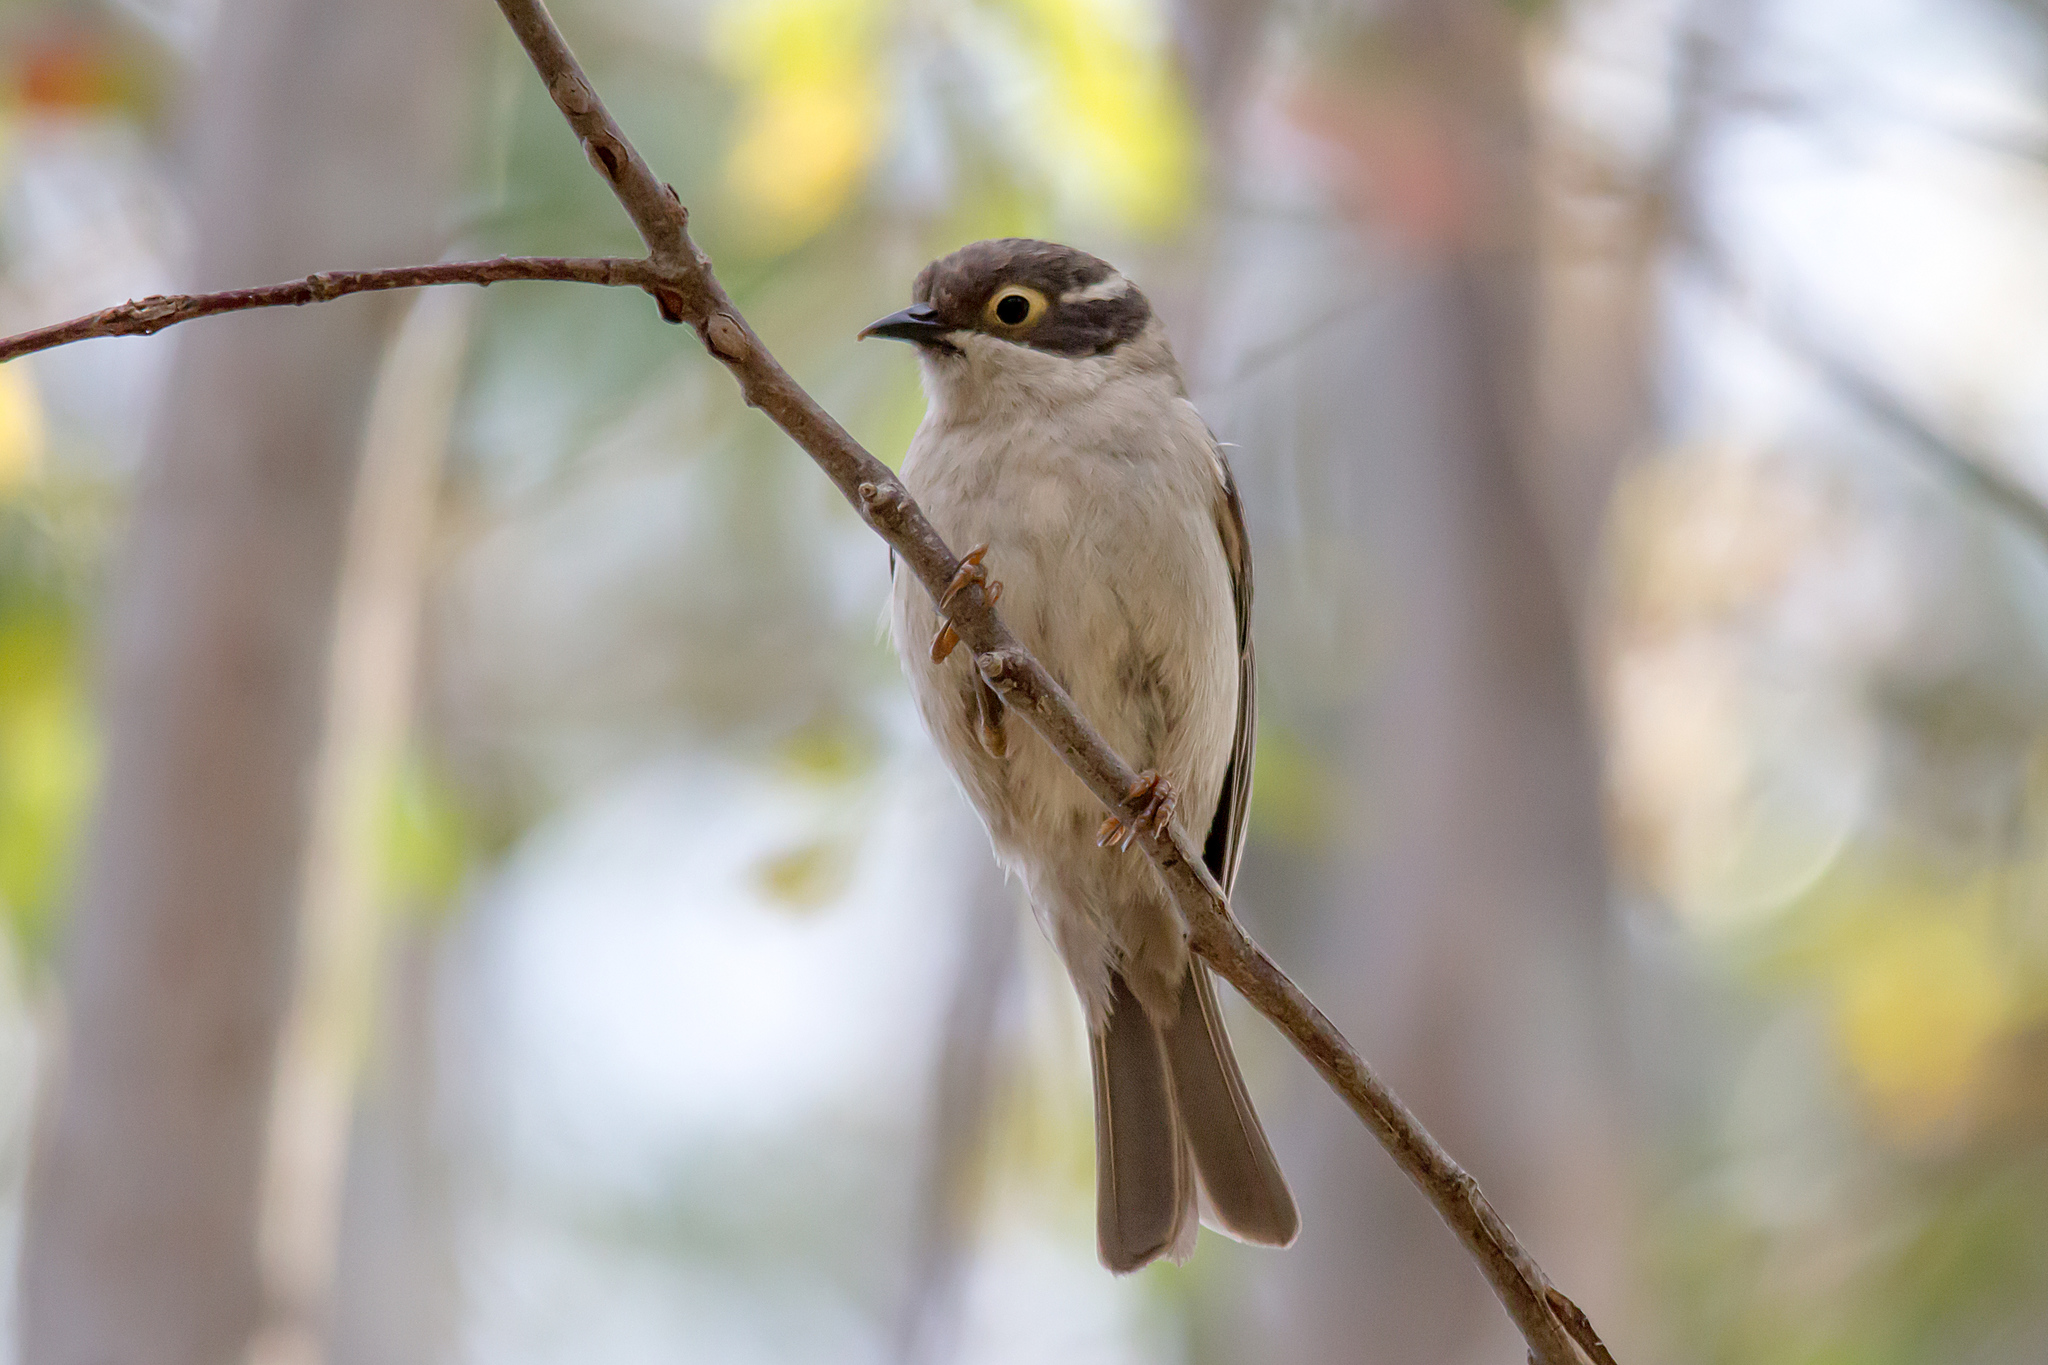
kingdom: Animalia
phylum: Chordata
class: Aves
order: Passeriformes
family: Meliphagidae
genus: Melithreptus
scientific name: Melithreptus brevirostris
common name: Brown-headed honeyeater
